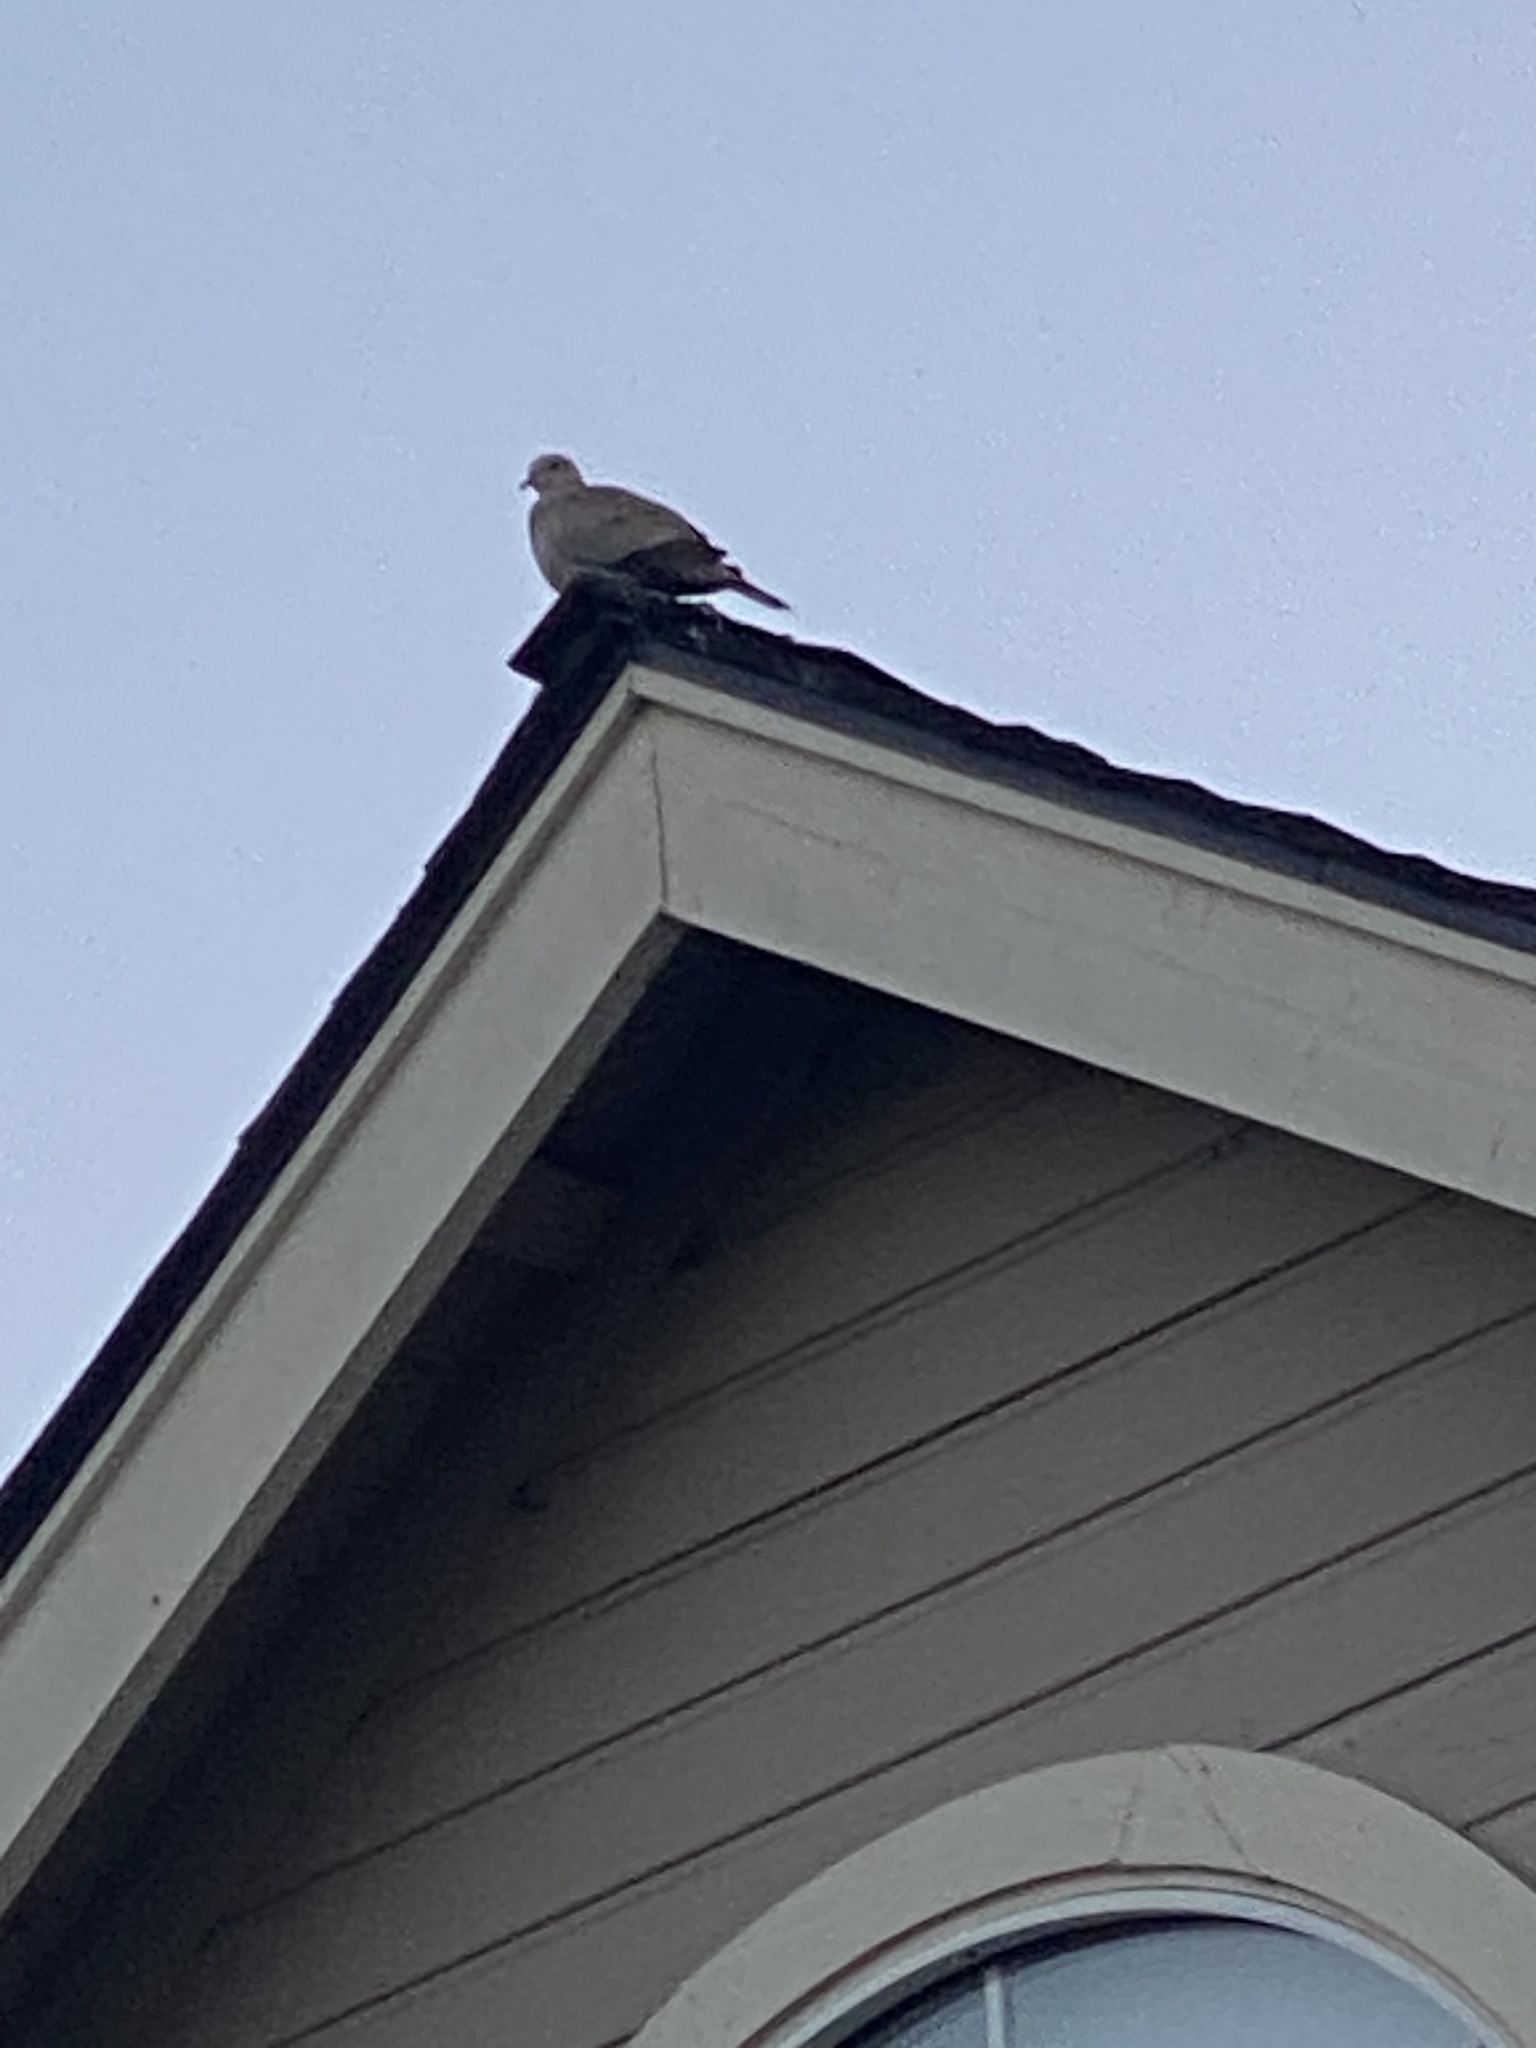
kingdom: Animalia
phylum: Chordata
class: Aves
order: Columbiformes
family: Columbidae
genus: Zenaida
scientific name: Zenaida macroura
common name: Mourning dove
